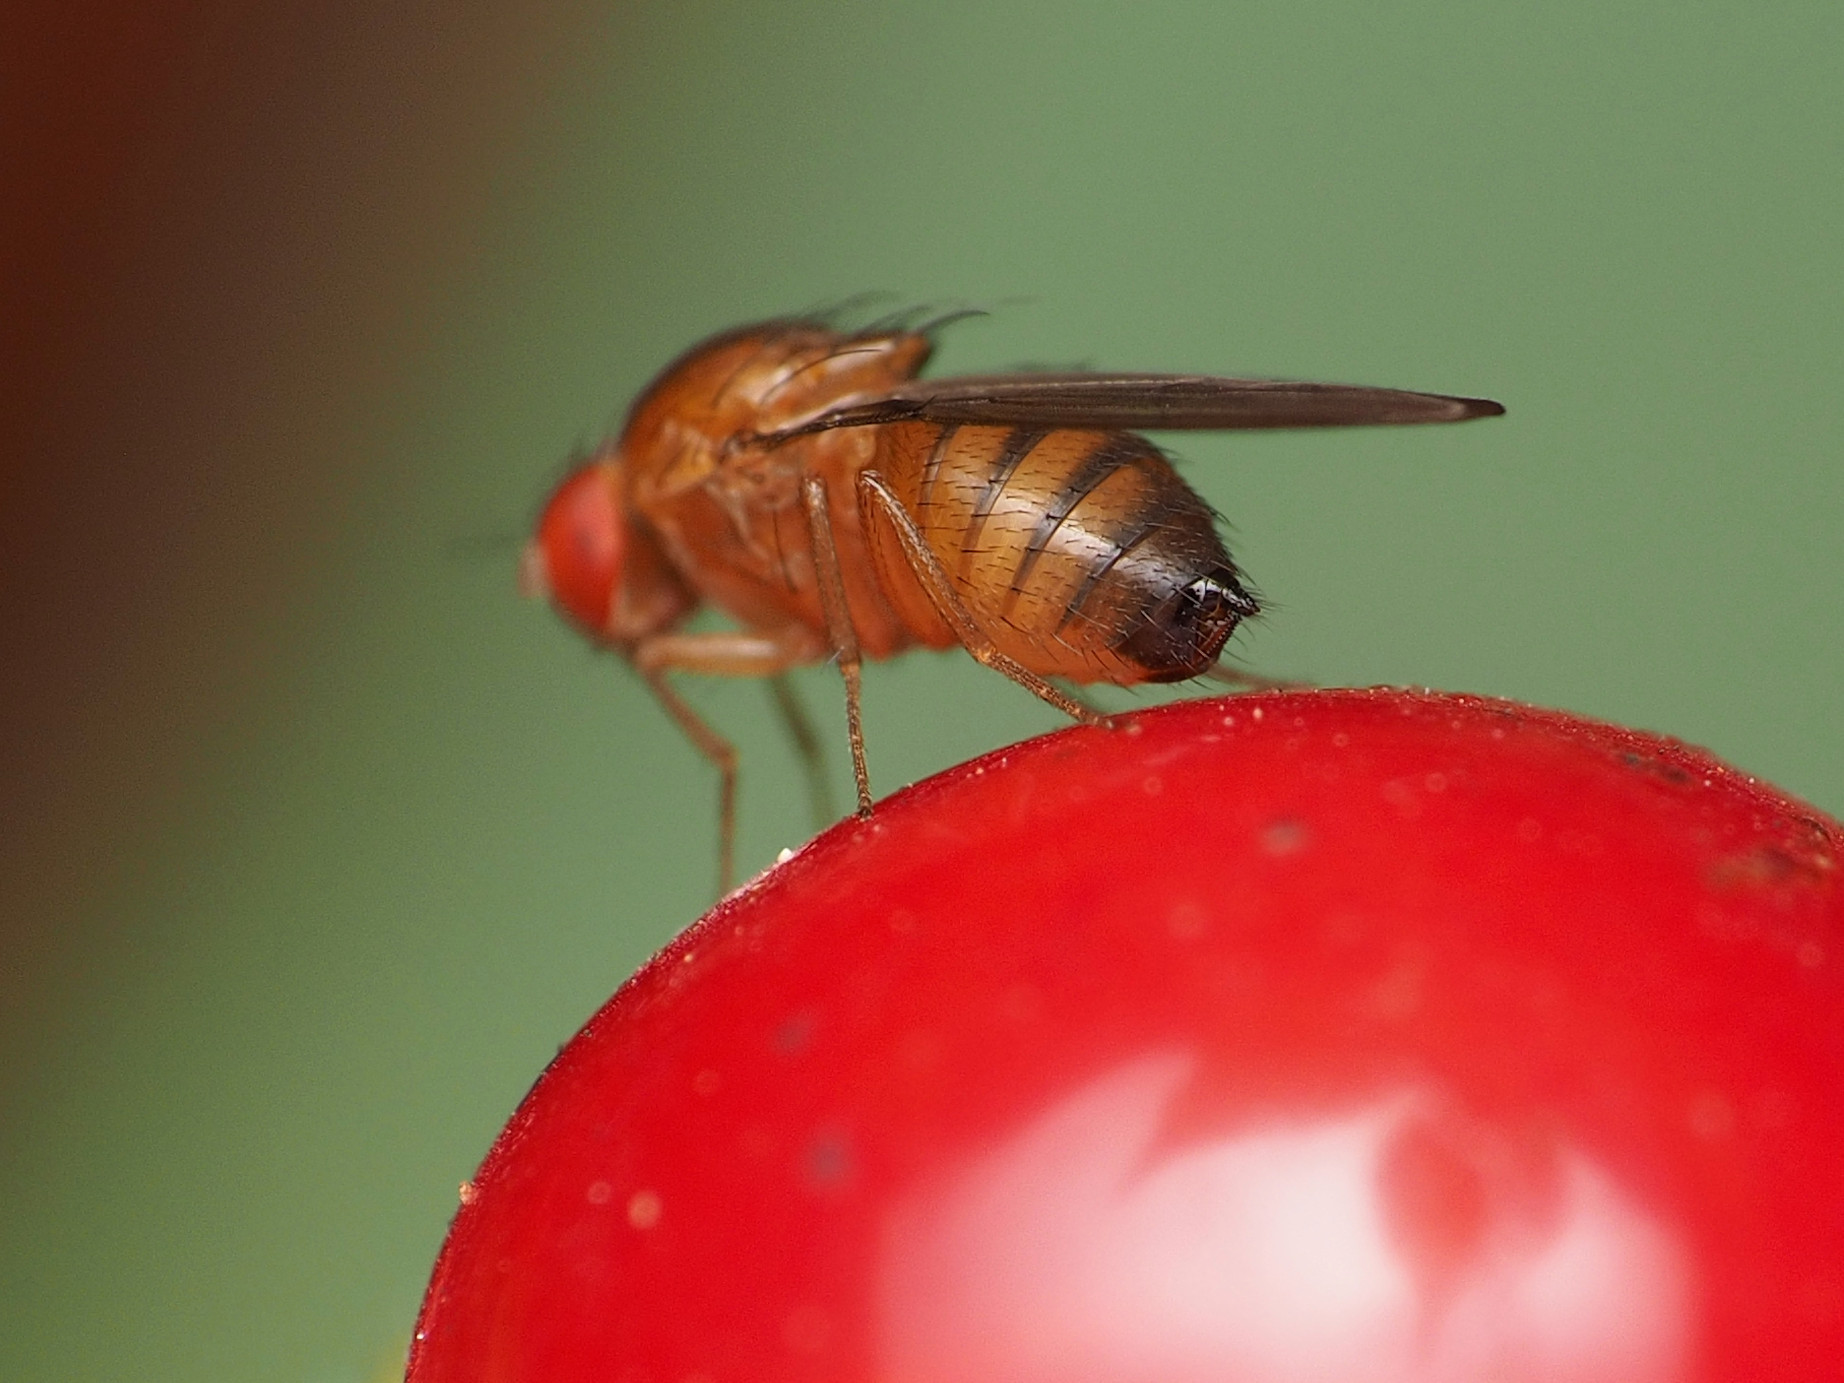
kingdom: Animalia
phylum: Arthropoda
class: Insecta
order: Diptera
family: Drosophilidae
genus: Drosophila
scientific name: Drosophila suzukii
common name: Spotted-wing drosophila
